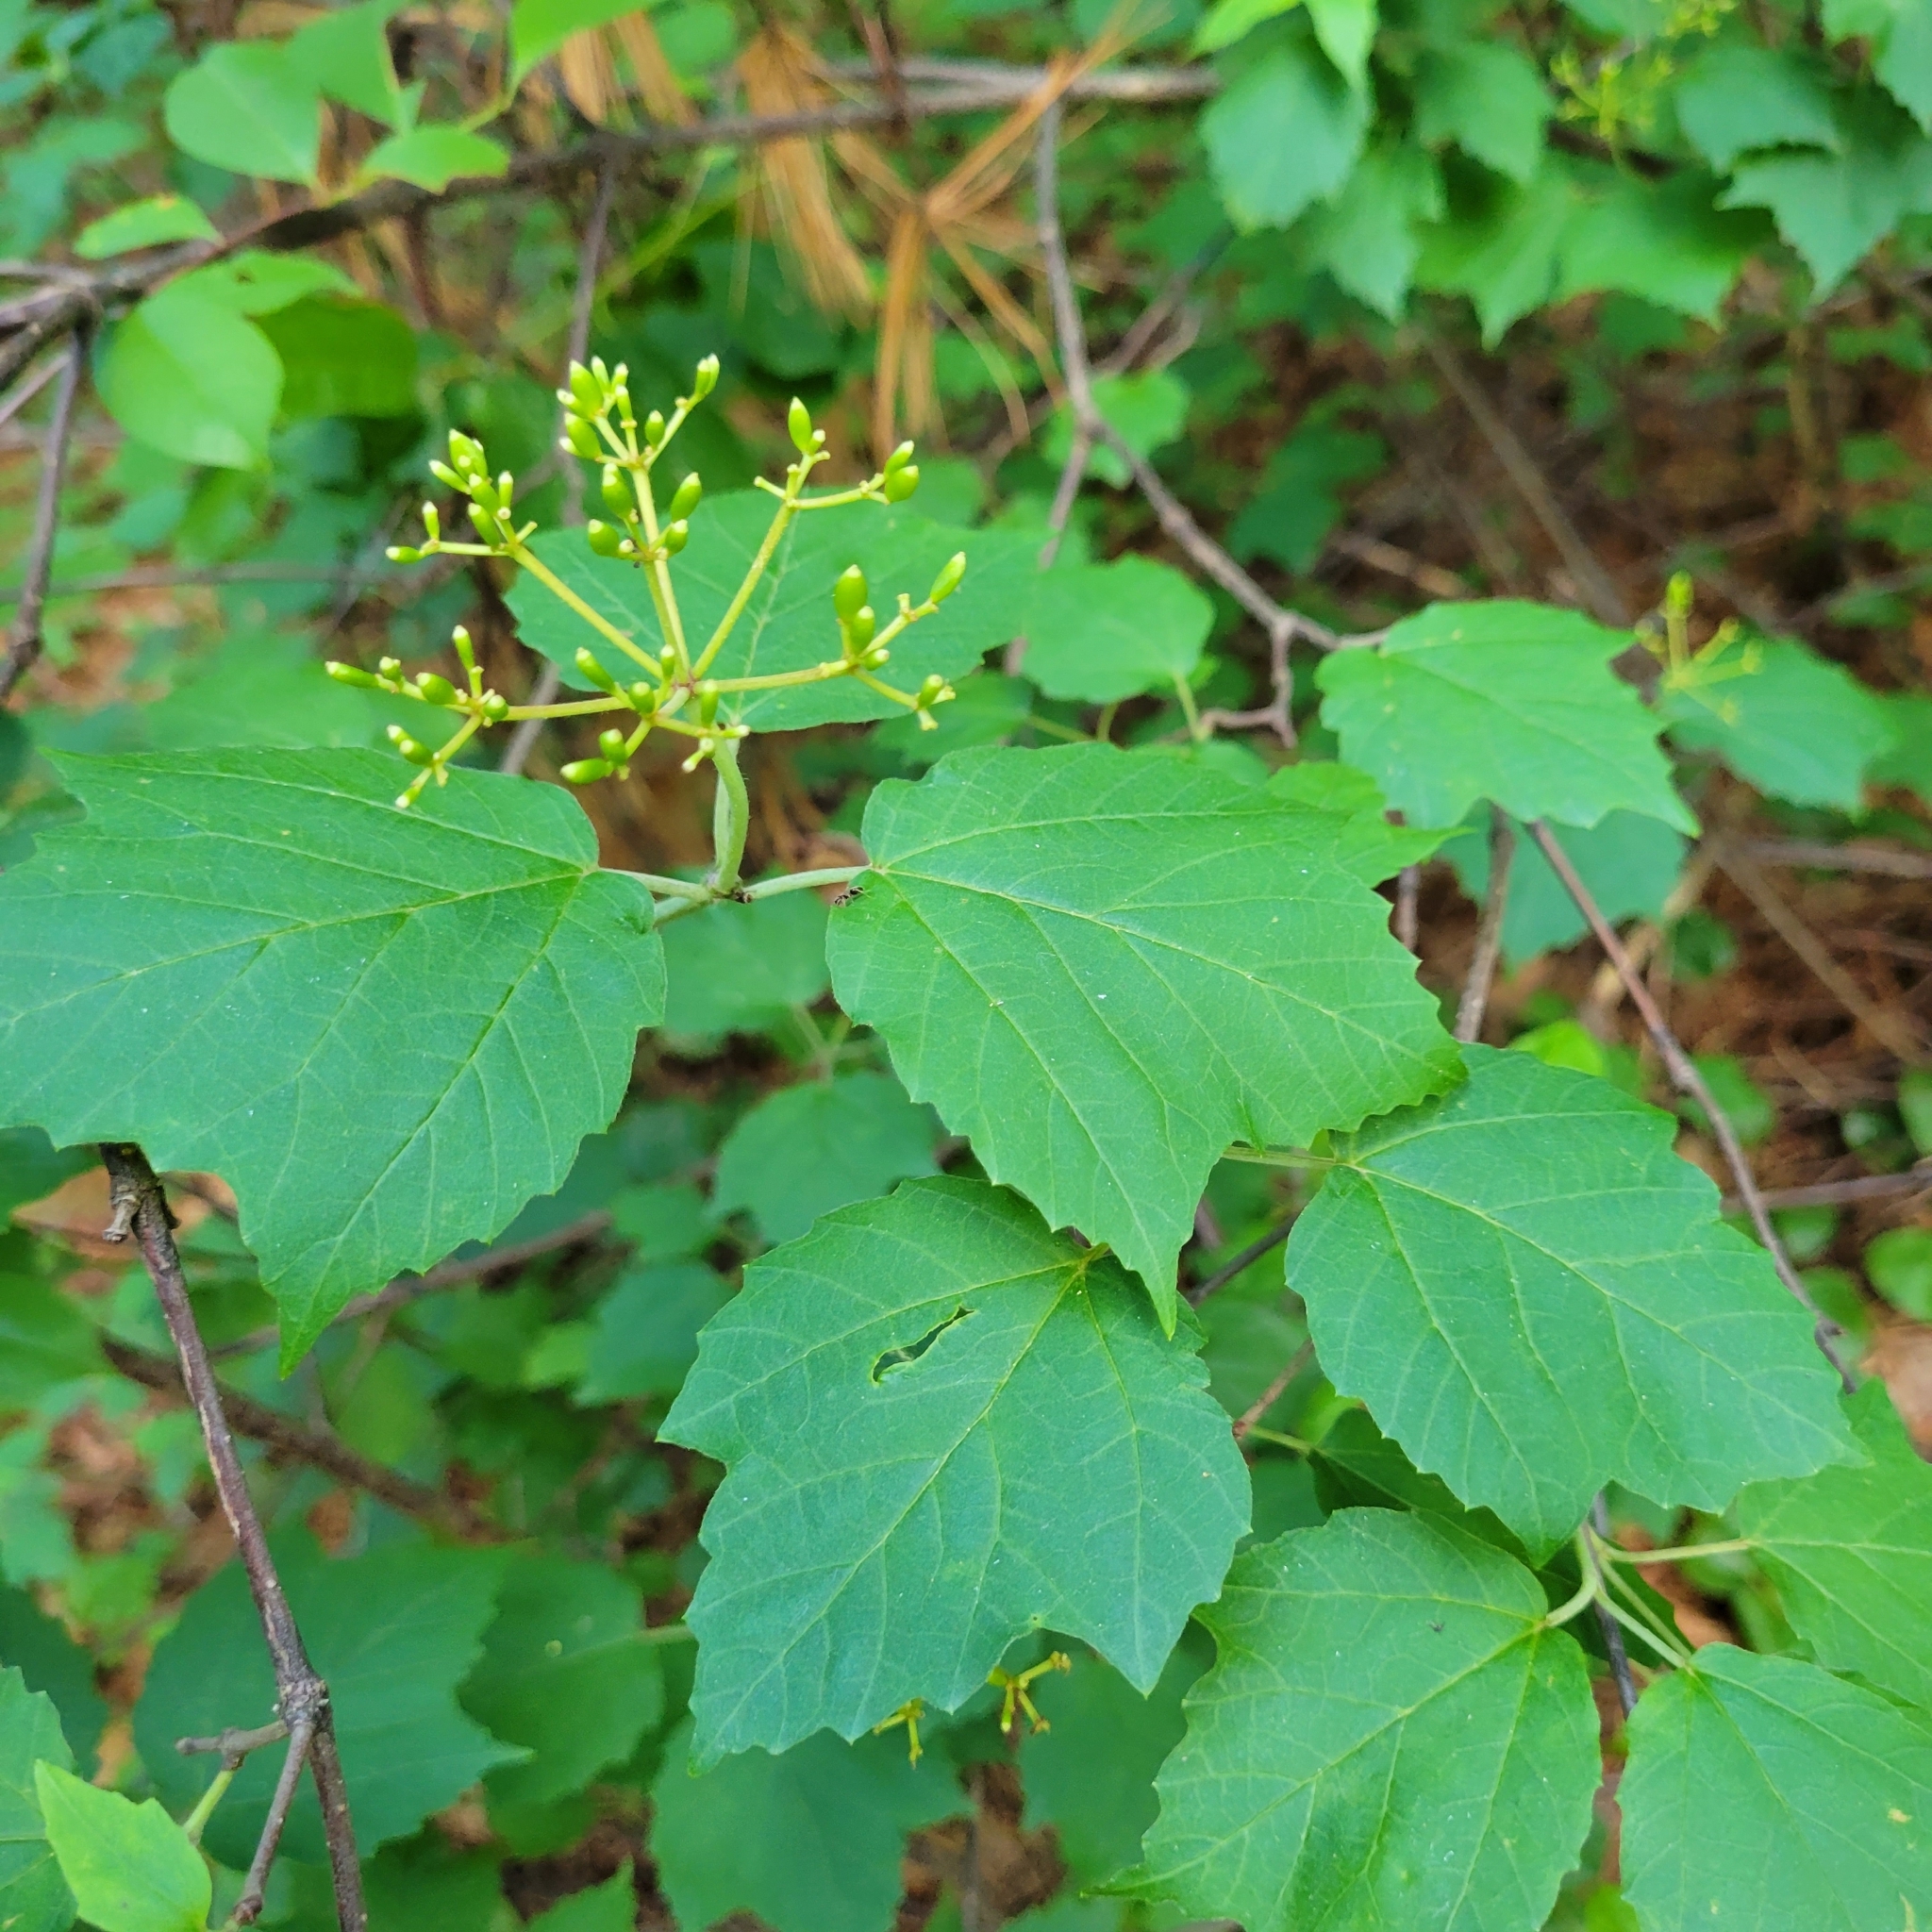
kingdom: Plantae
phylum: Tracheophyta
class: Magnoliopsida
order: Dipsacales
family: Viburnaceae
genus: Viburnum
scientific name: Viburnum acerifolium
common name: Dockmackie
